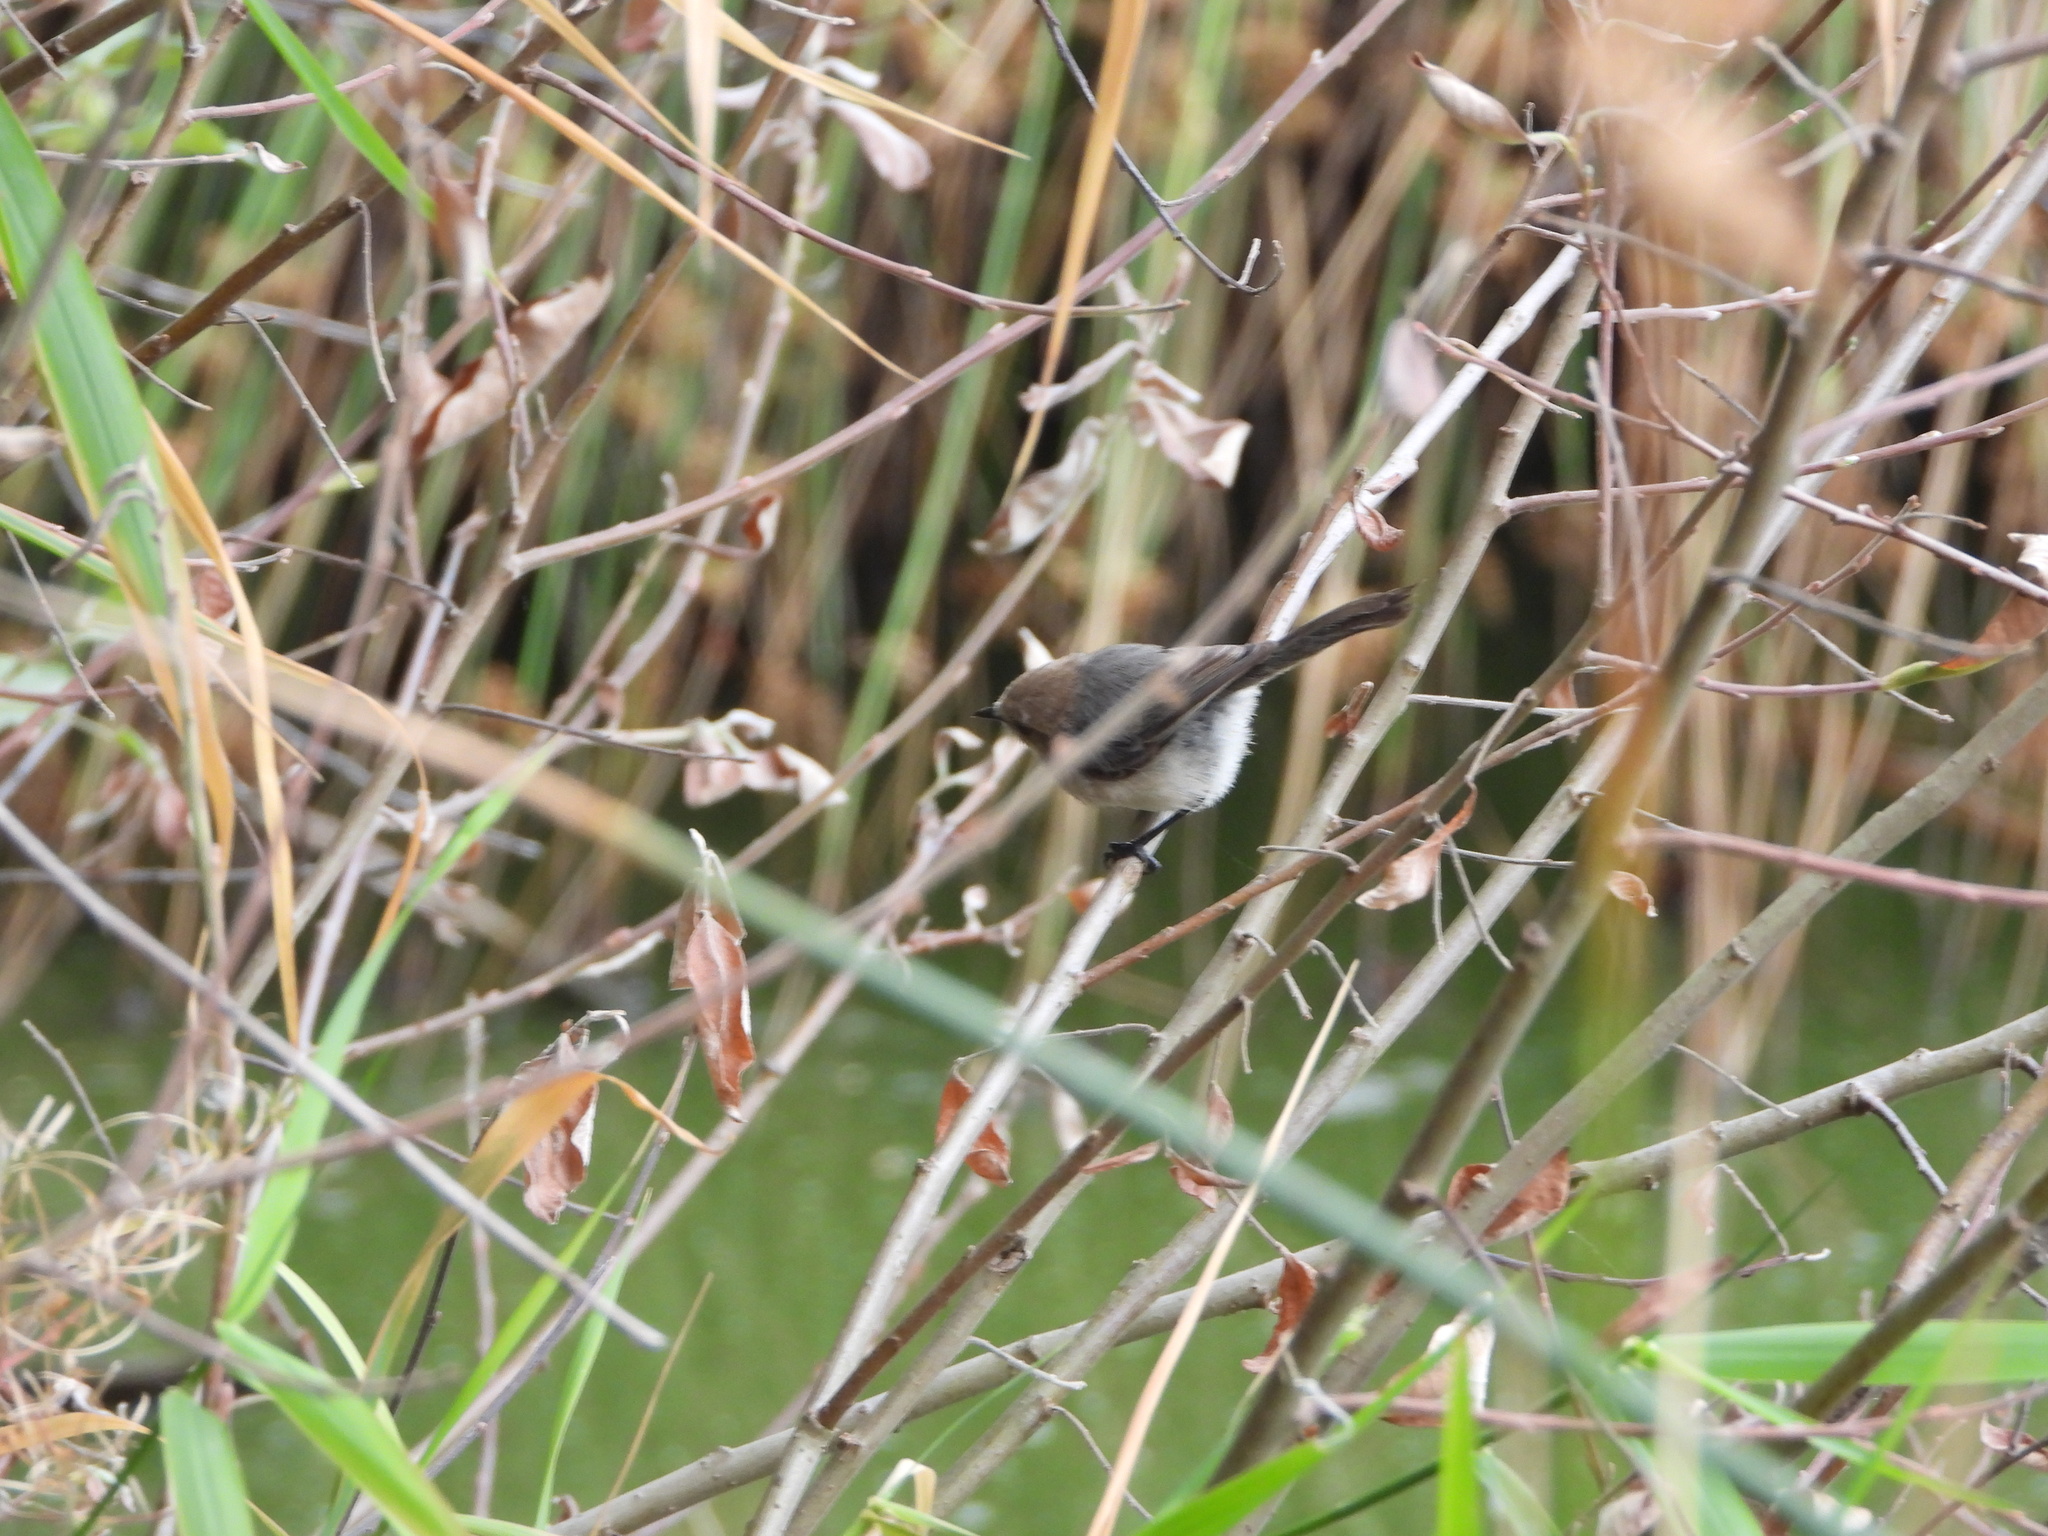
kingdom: Animalia
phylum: Chordata
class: Aves
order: Passeriformes
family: Aegithalidae
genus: Psaltriparus
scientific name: Psaltriparus minimus
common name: American bushtit
